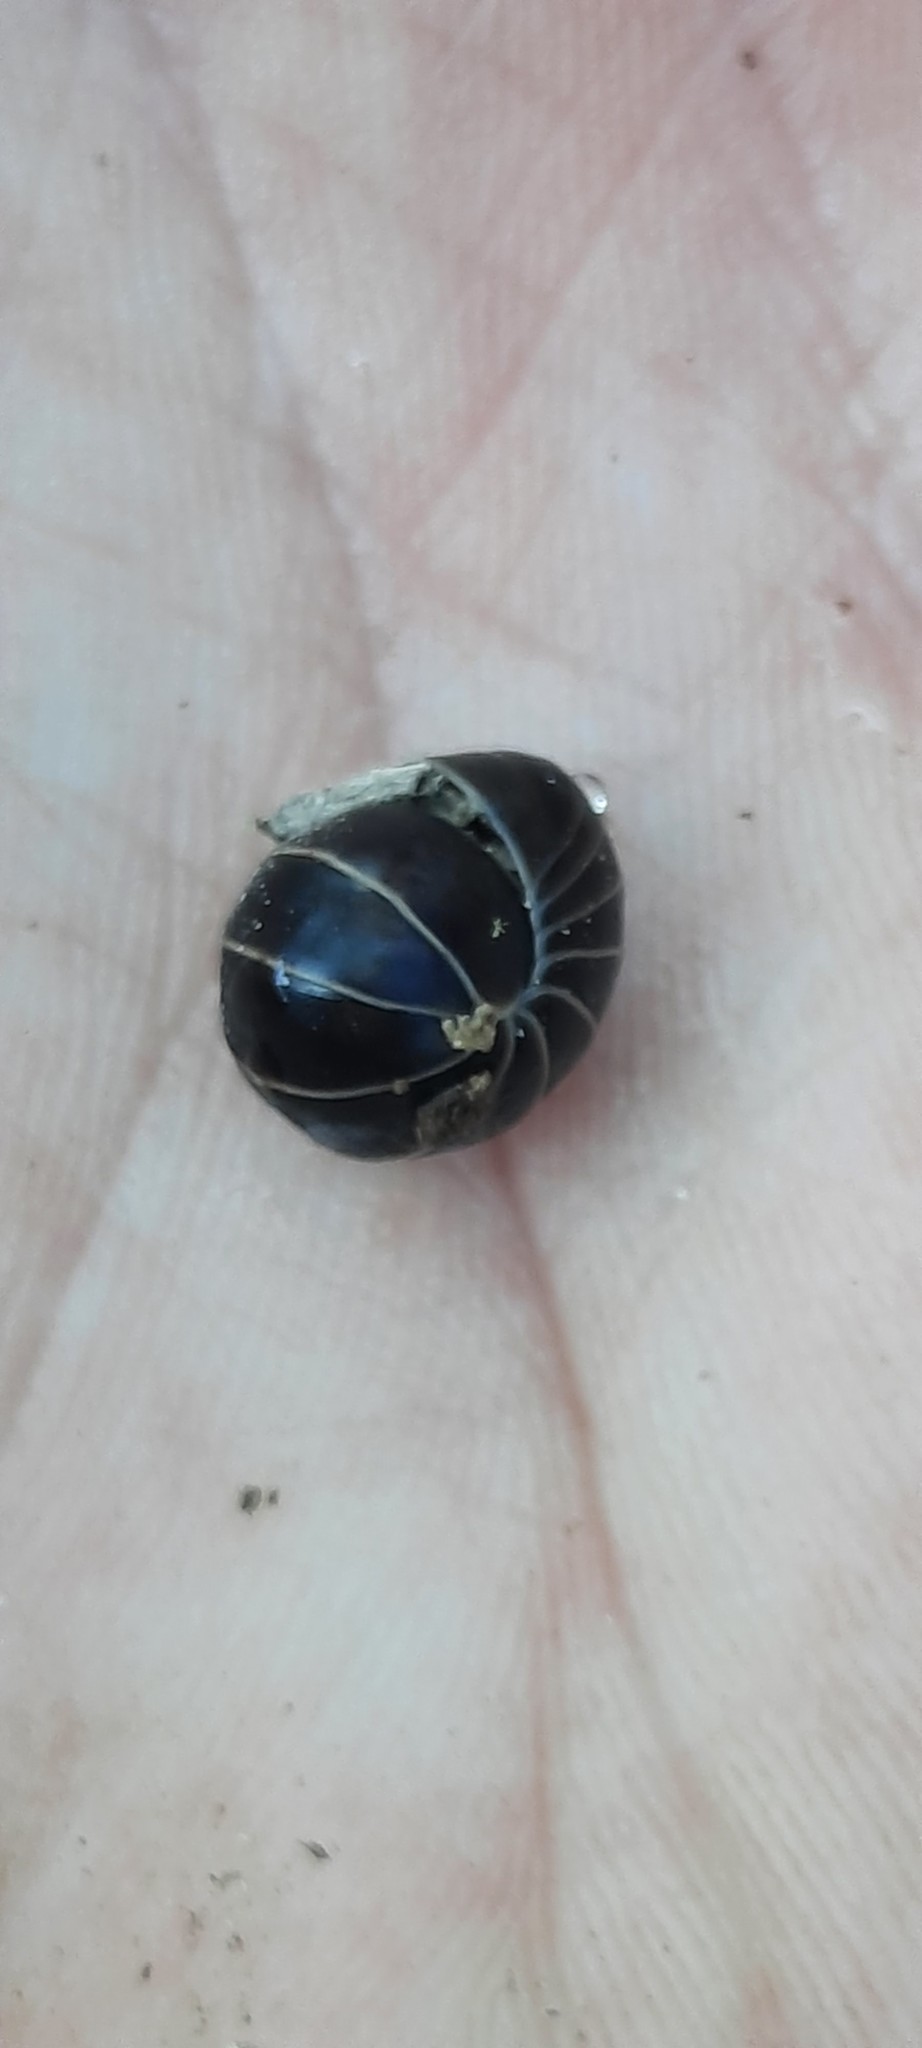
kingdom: Animalia
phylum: Arthropoda
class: Diplopoda
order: Glomerida
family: Glomeridae
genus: Glomeris
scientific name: Glomeris marginata
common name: Bordered pill millipede
